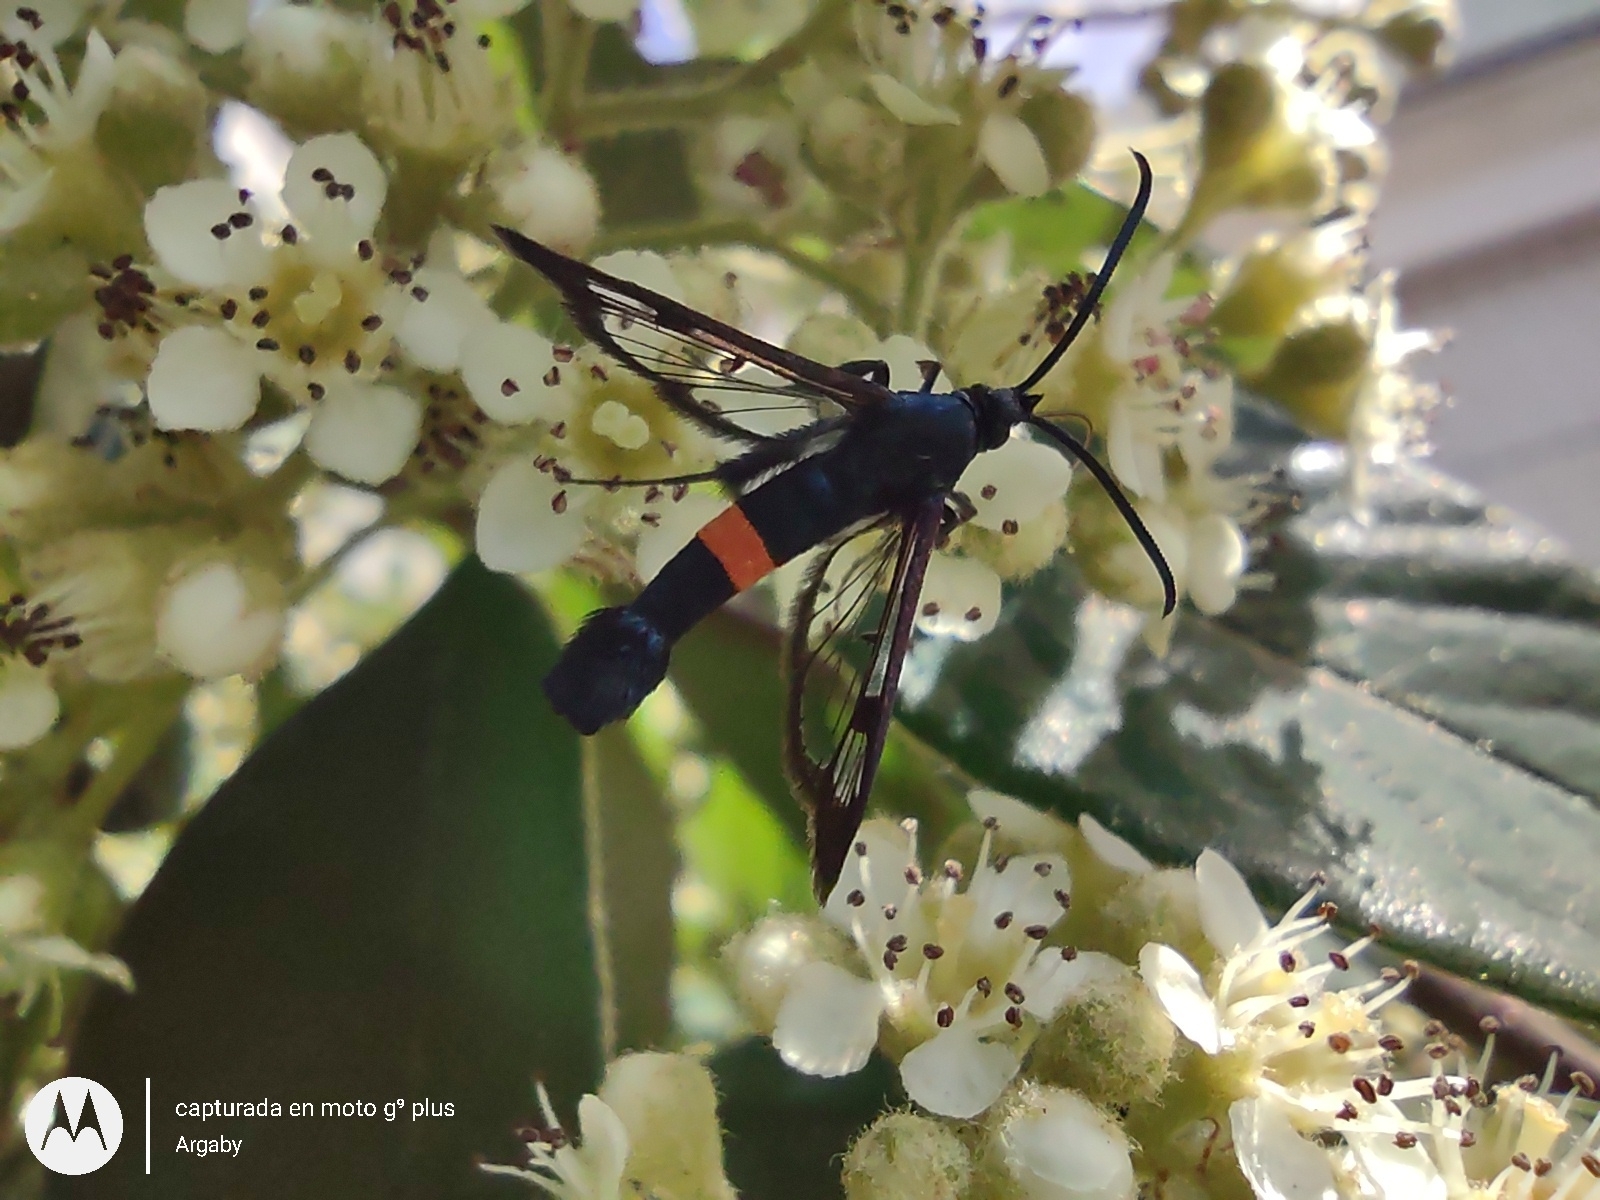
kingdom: Animalia
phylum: Arthropoda
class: Insecta
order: Lepidoptera
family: Sesiidae
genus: Synanthedon
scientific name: Synanthedon myopaeformis
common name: Red-belted clearwing
